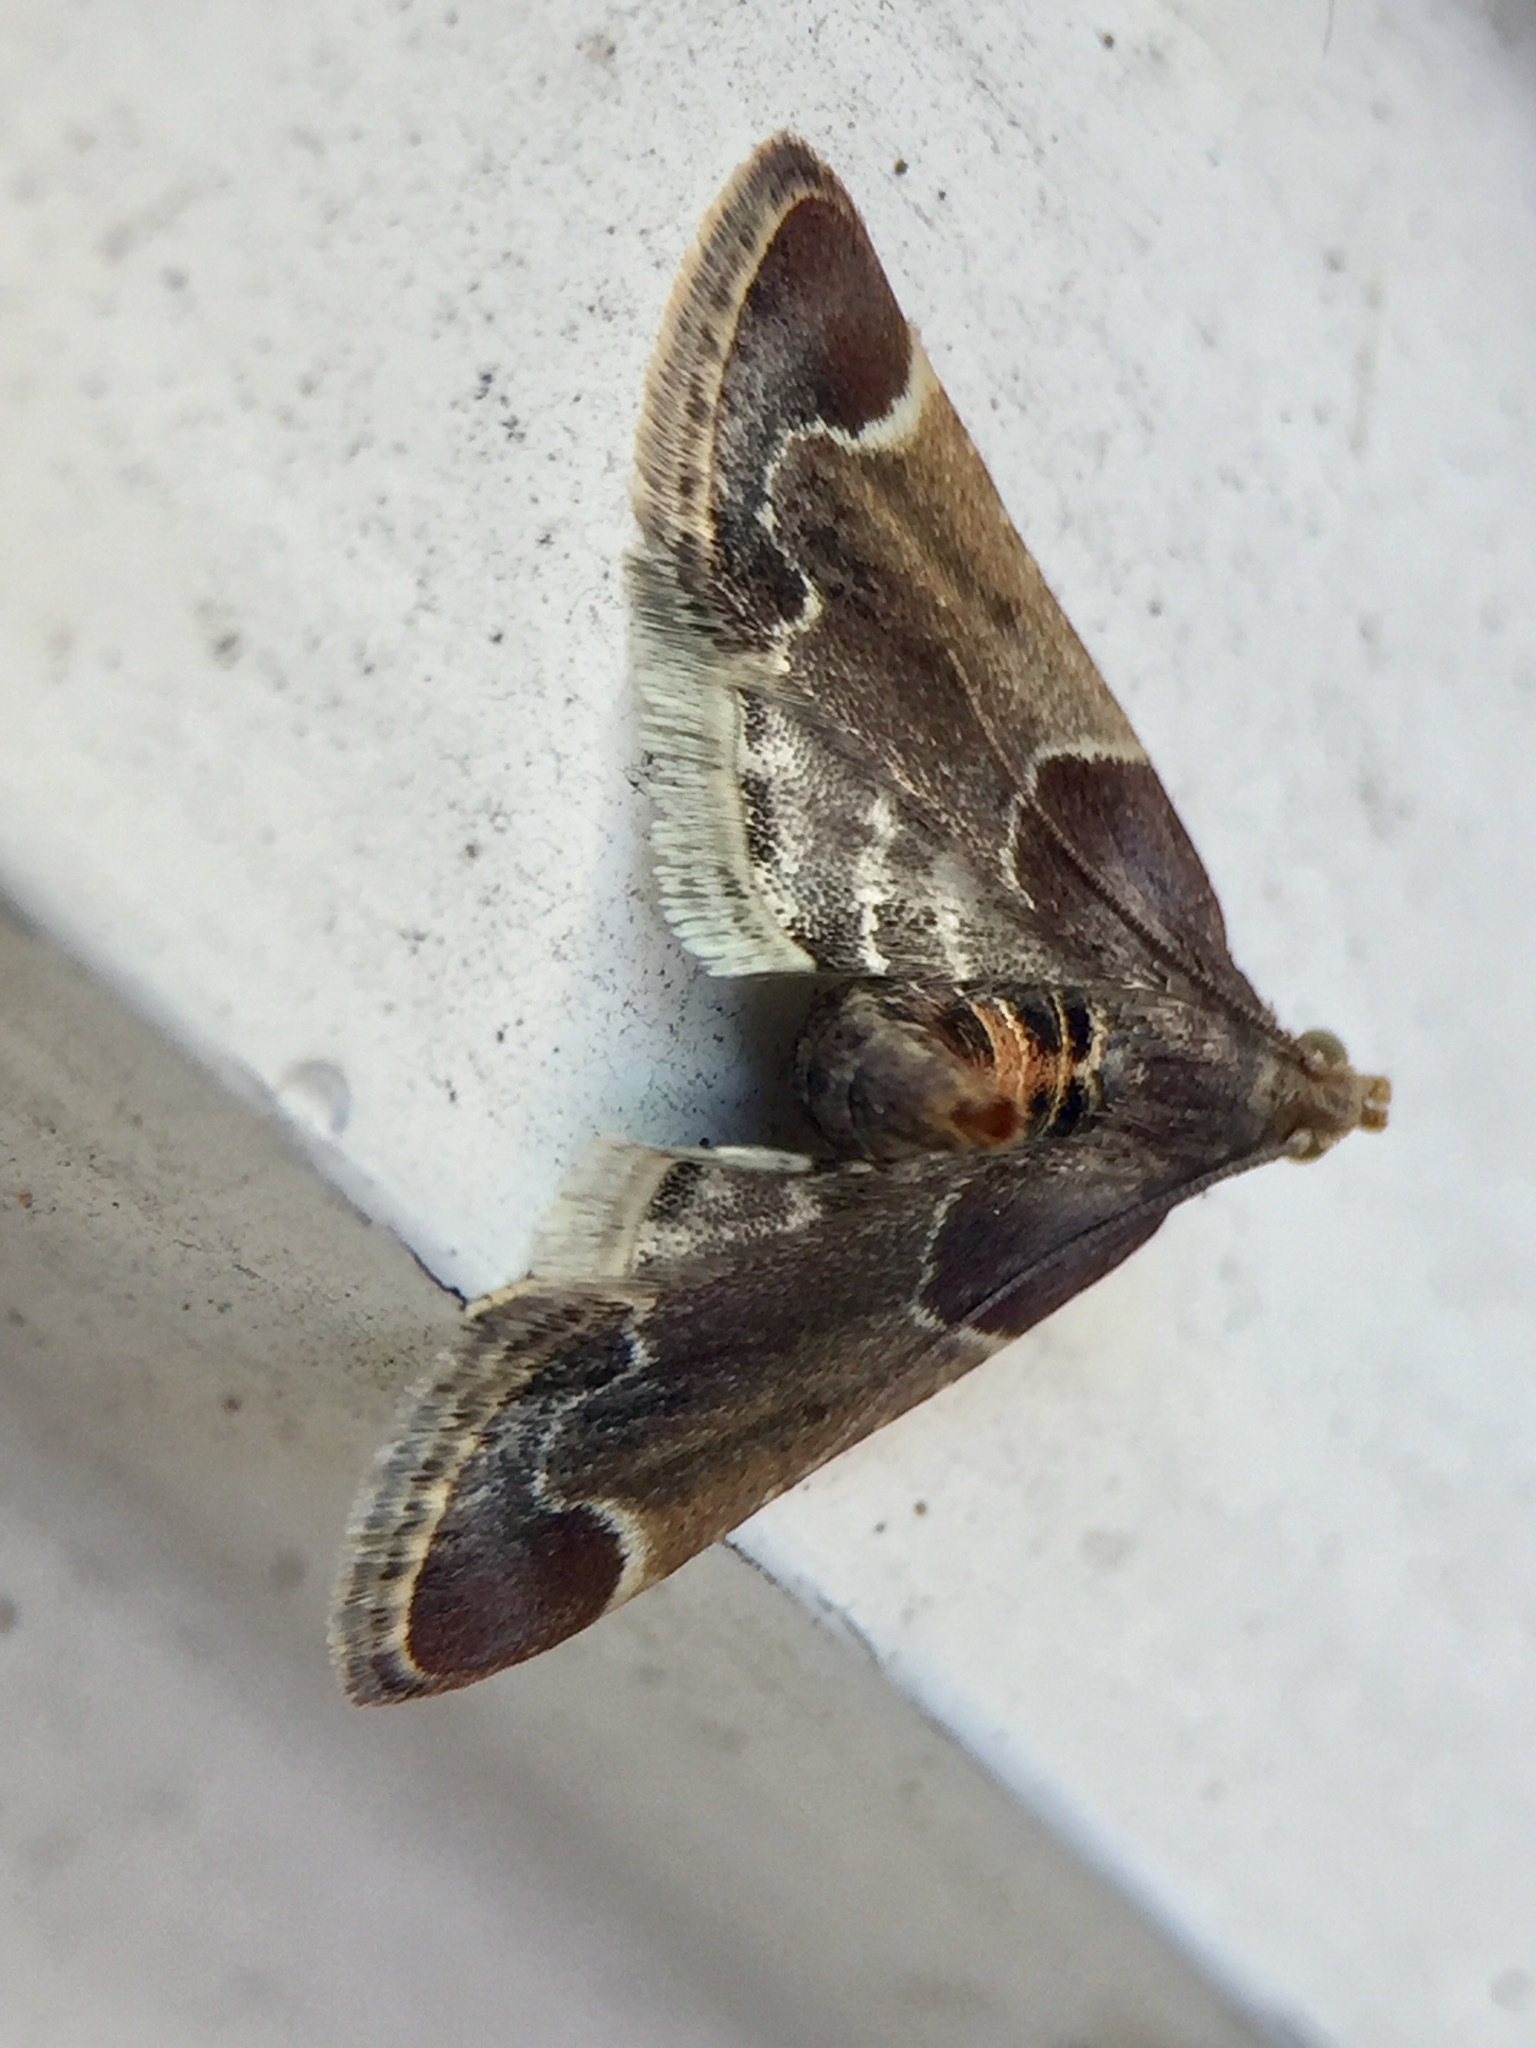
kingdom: Animalia
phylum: Arthropoda
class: Insecta
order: Lepidoptera
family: Pyralidae
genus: Pyralis
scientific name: Pyralis farinalis
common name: Meal moth
